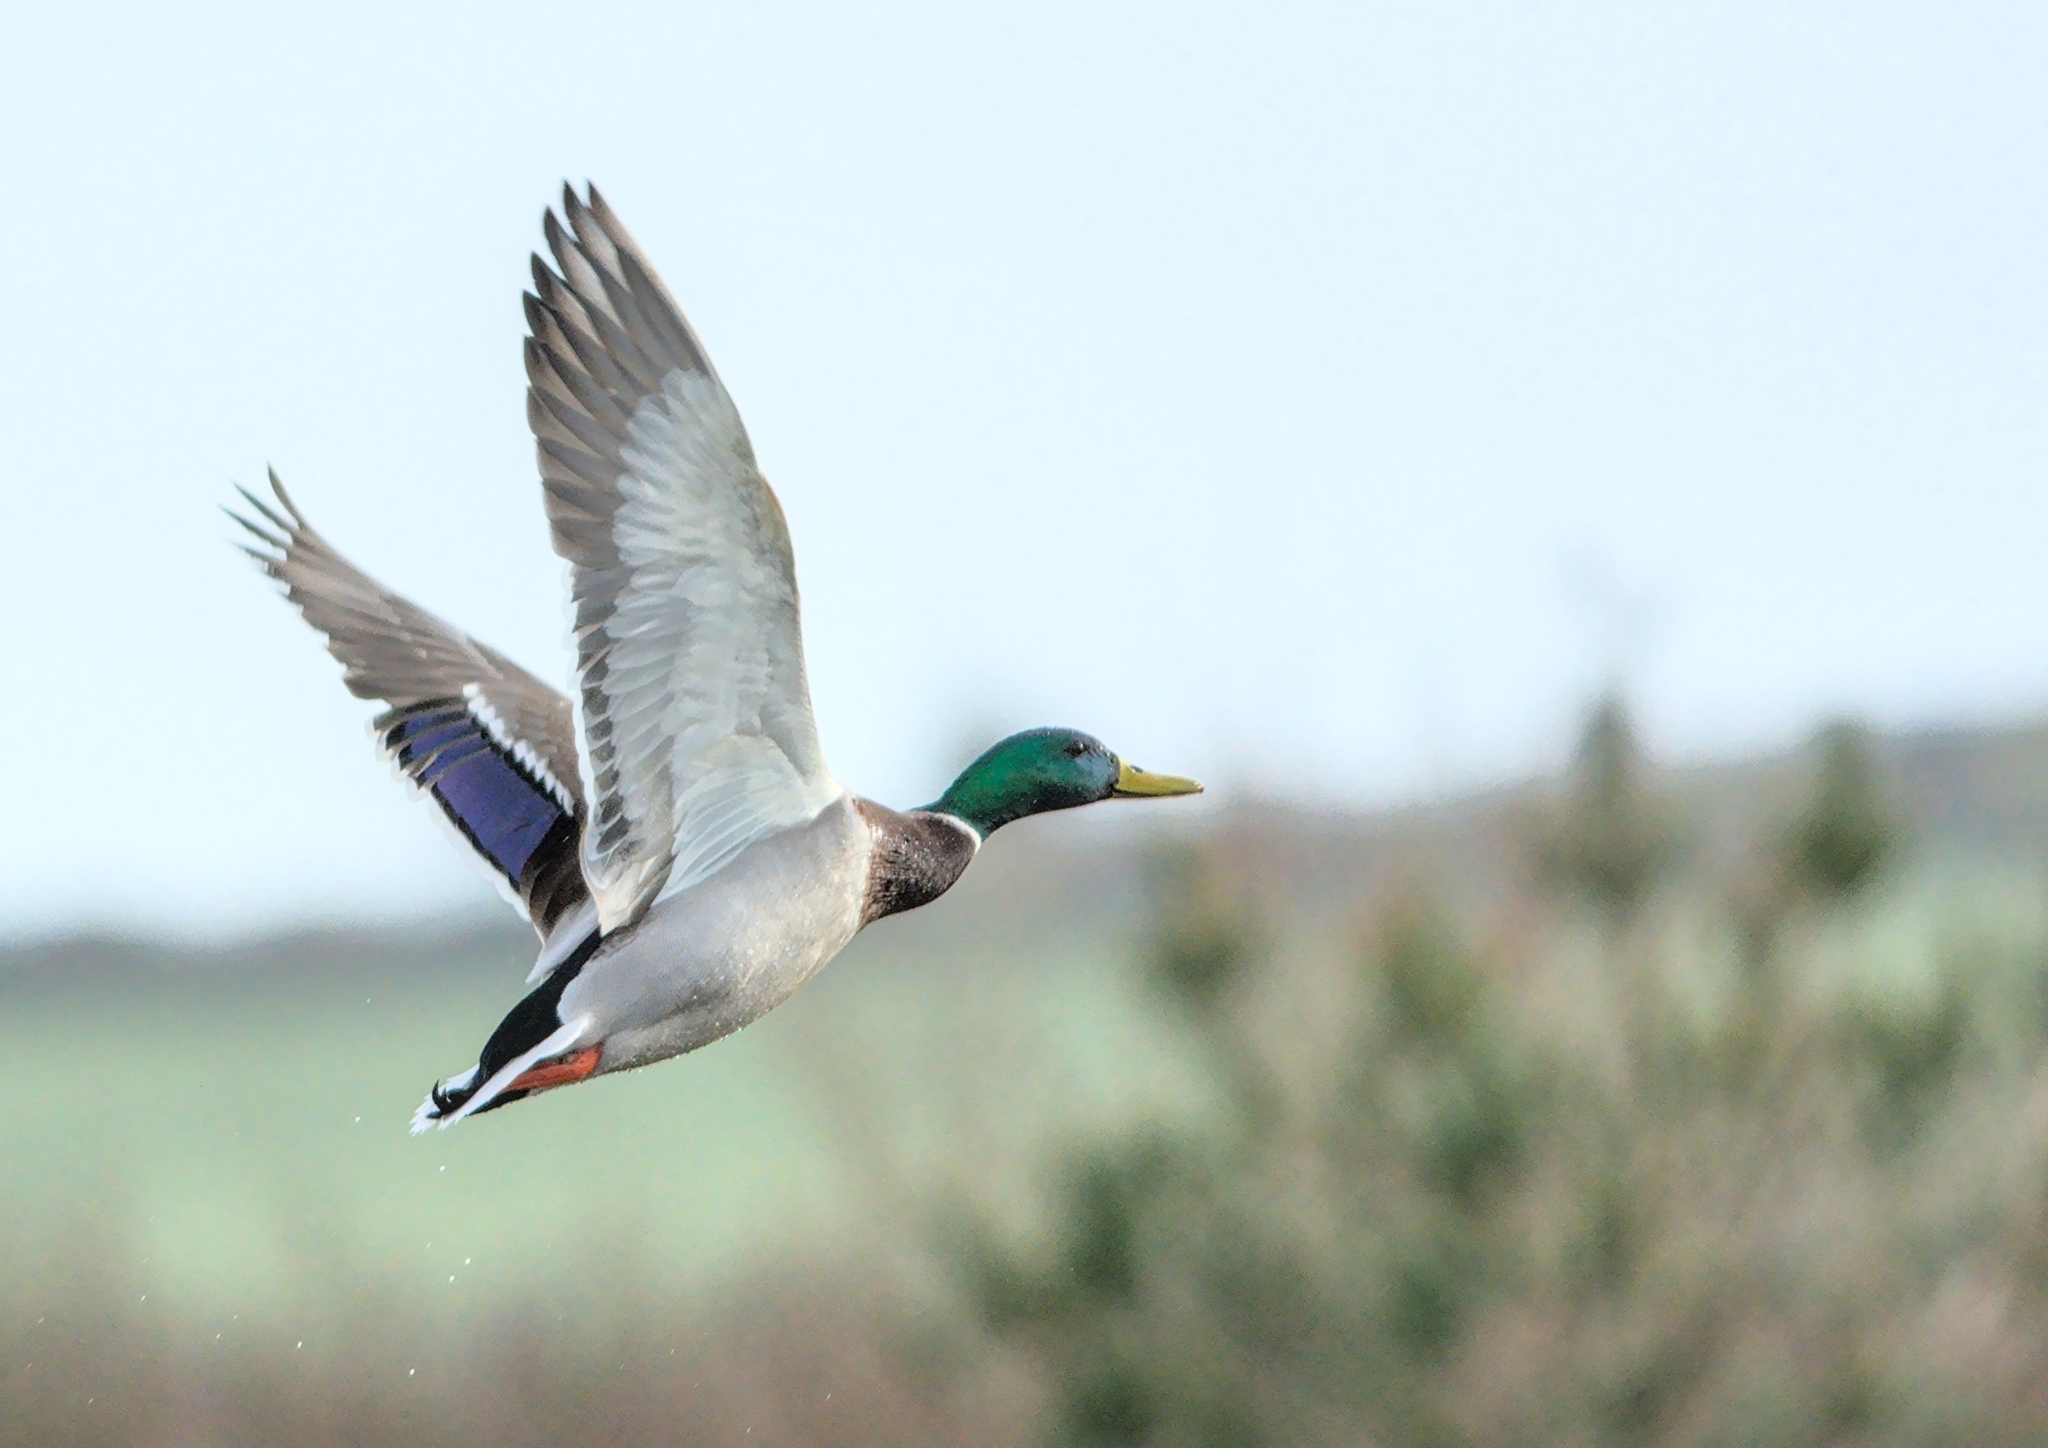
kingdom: Animalia
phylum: Chordata
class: Aves
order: Anseriformes
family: Anatidae
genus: Anas
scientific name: Anas platyrhynchos
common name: Mallard
